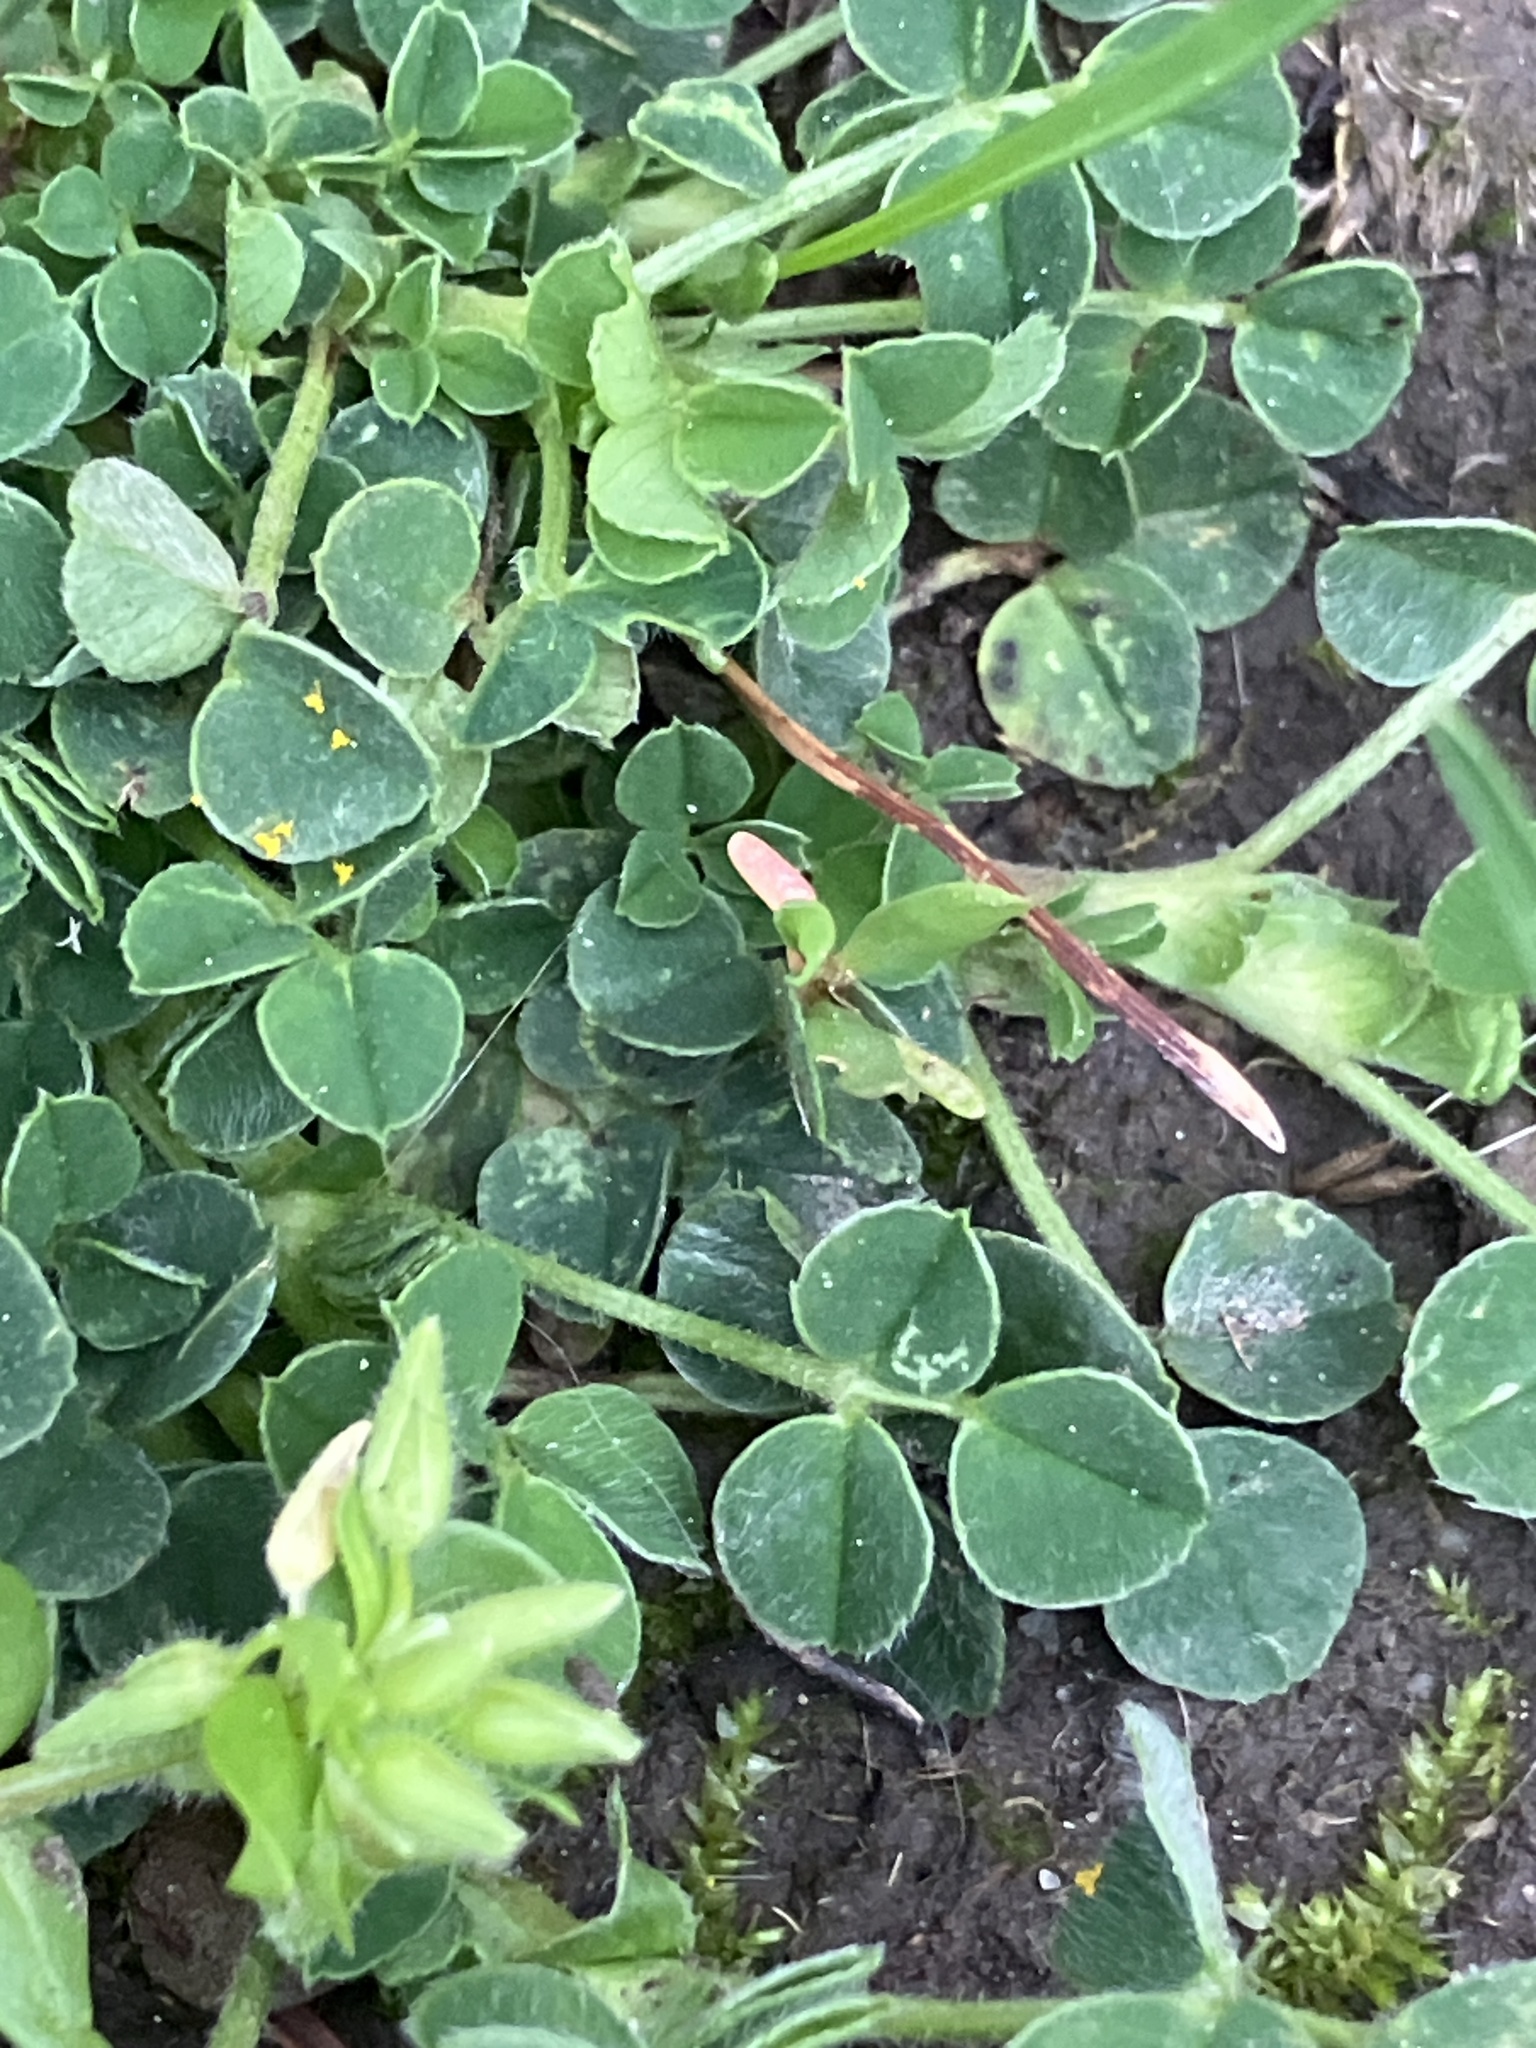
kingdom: Plantae
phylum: Tracheophyta
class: Magnoliopsida
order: Fabales
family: Fabaceae
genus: Medicago
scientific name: Medicago lupulina
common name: Black medick
